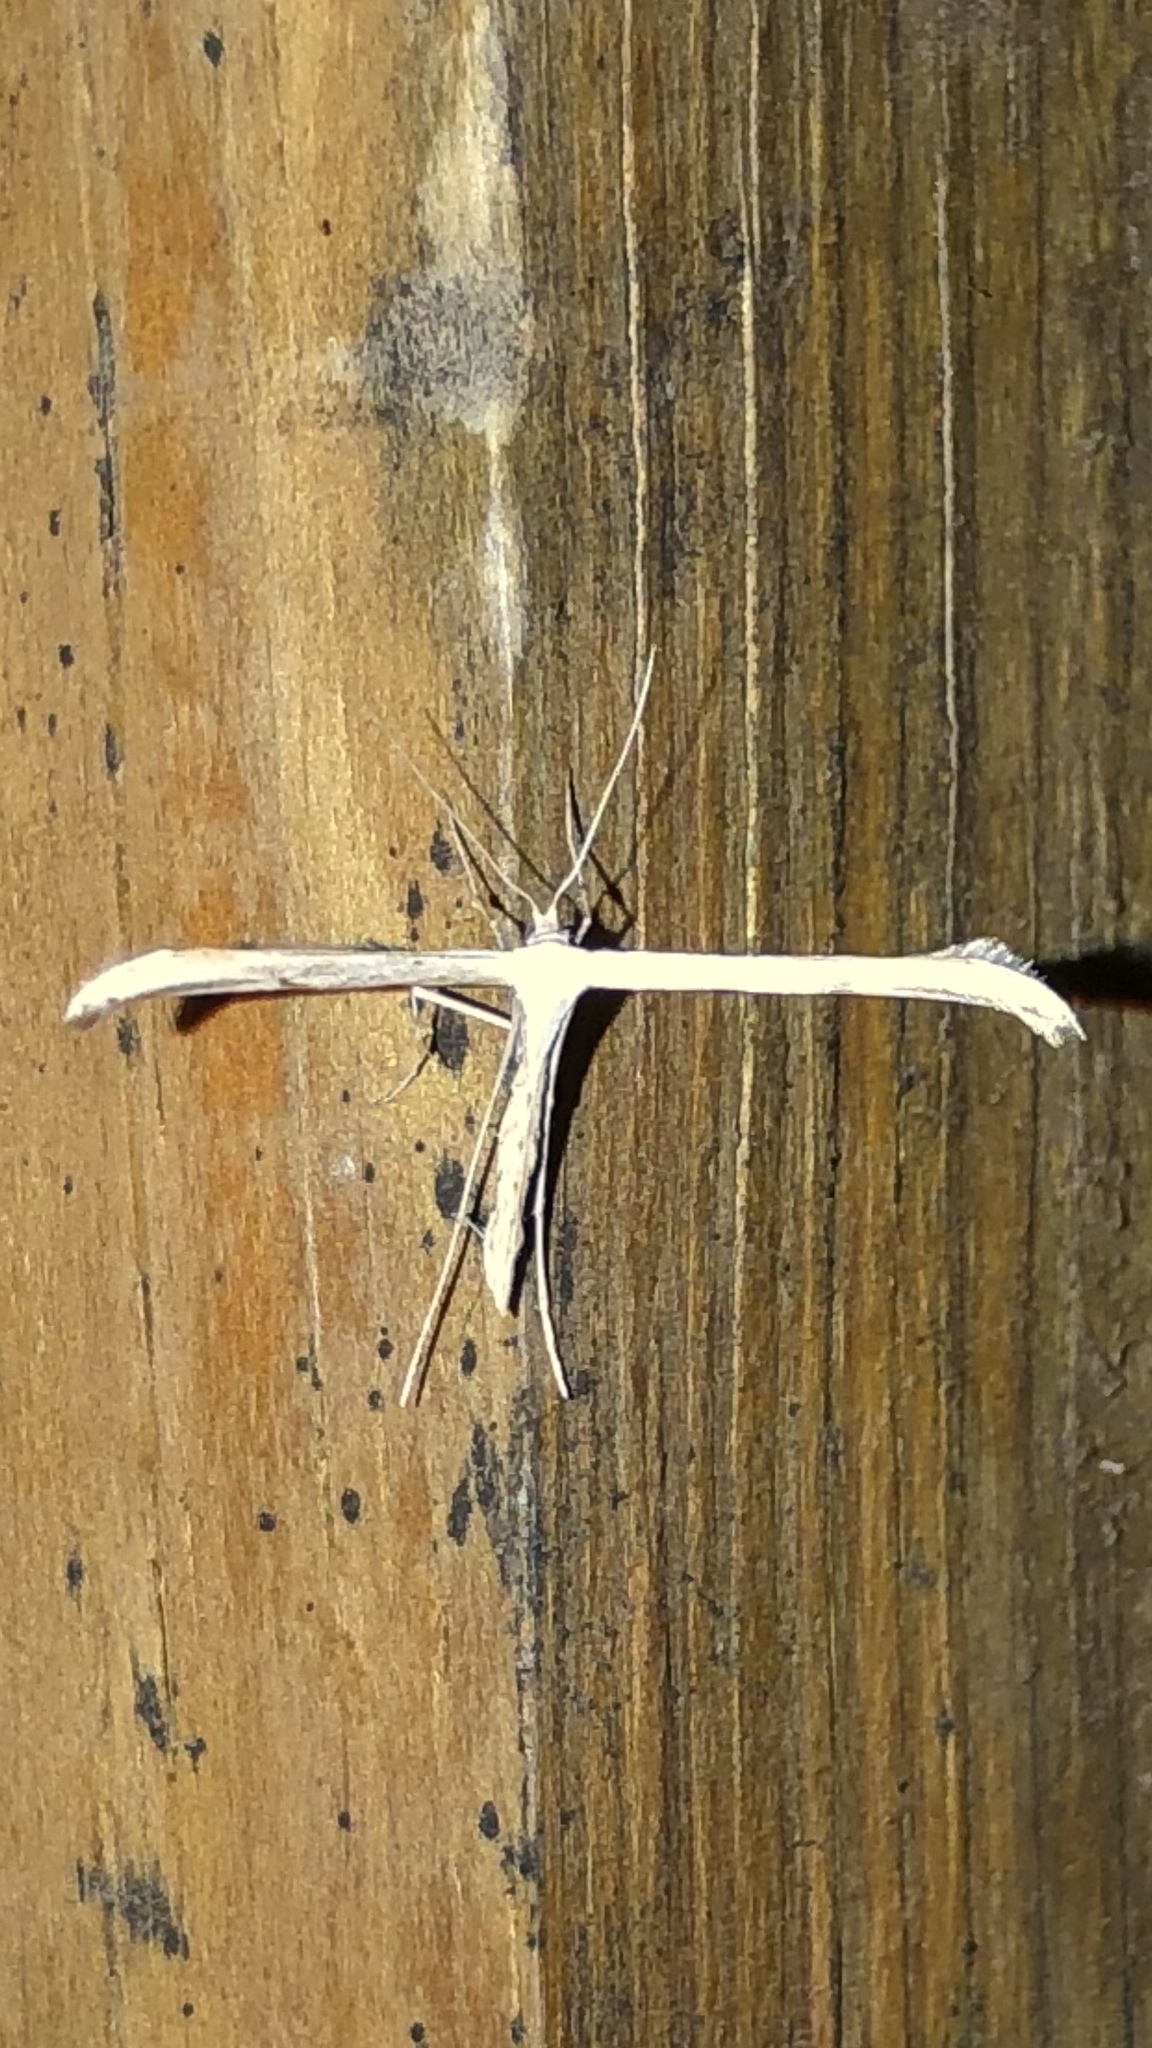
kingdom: Animalia
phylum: Arthropoda
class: Insecta
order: Lepidoptera
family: Pterophoridae
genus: Emmelina
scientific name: Emmelina monodactyla
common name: Common plume
